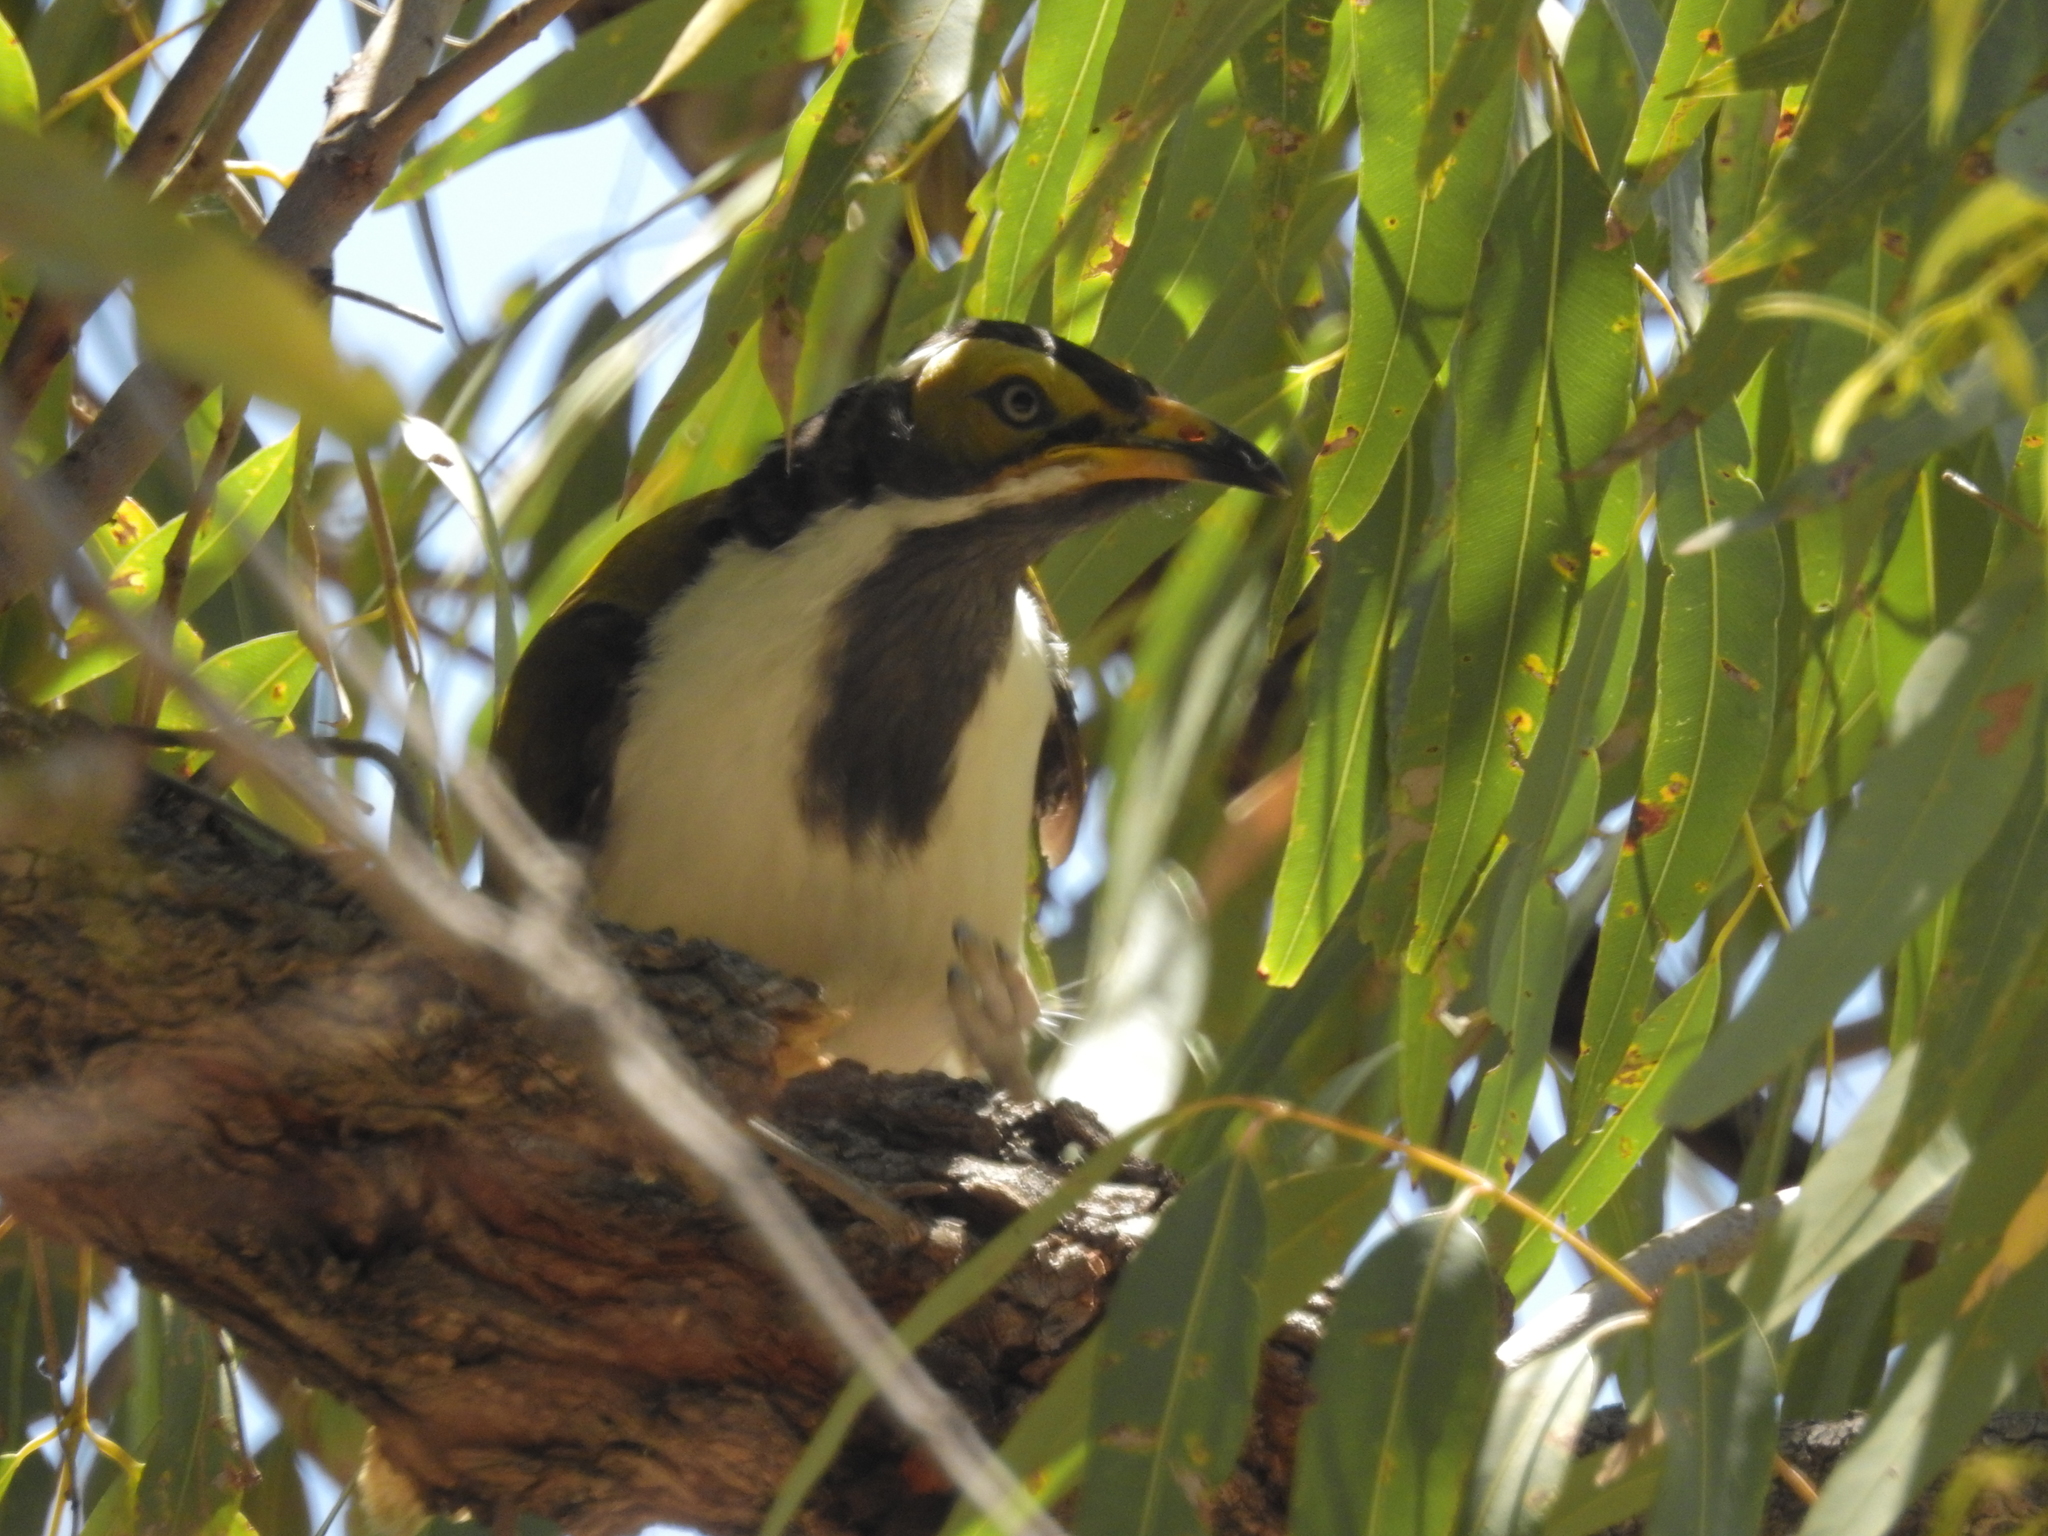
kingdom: Animalia
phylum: Chordata
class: Aves
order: Passeriformes
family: Meliphagidae
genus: Entomyzon
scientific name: Entomyzon cyanotis
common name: Blue-faced honeyeater
